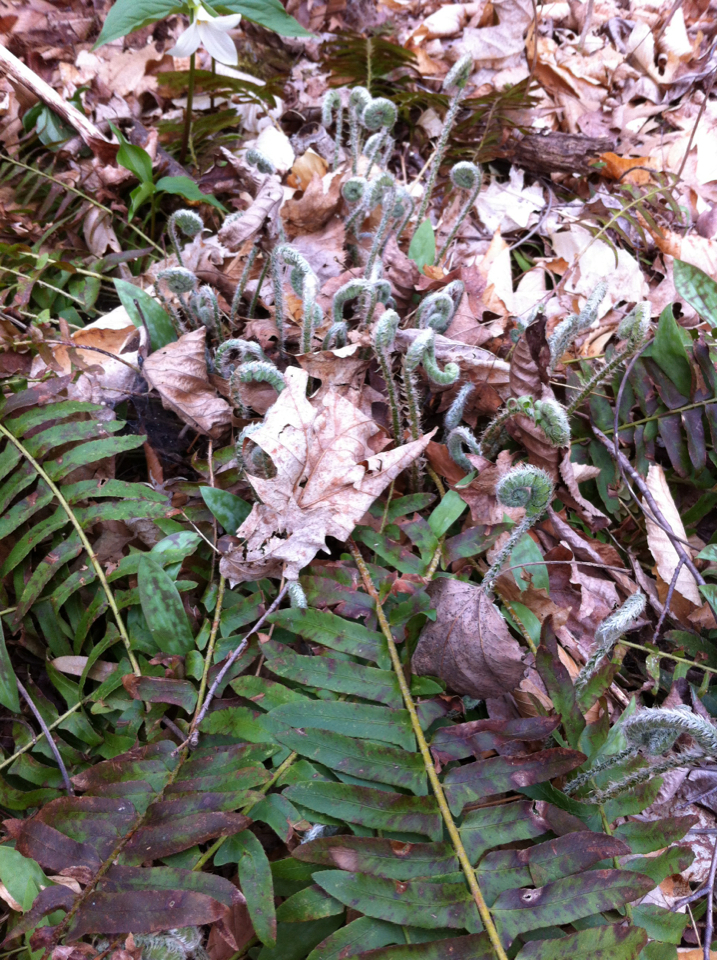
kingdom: Plantae
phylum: Tracheophyta
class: Polypodiopsida
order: Polypodiales
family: Dryopteridaceae
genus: Polystichum
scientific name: Polystichum acrostichoides
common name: Christmas fern
